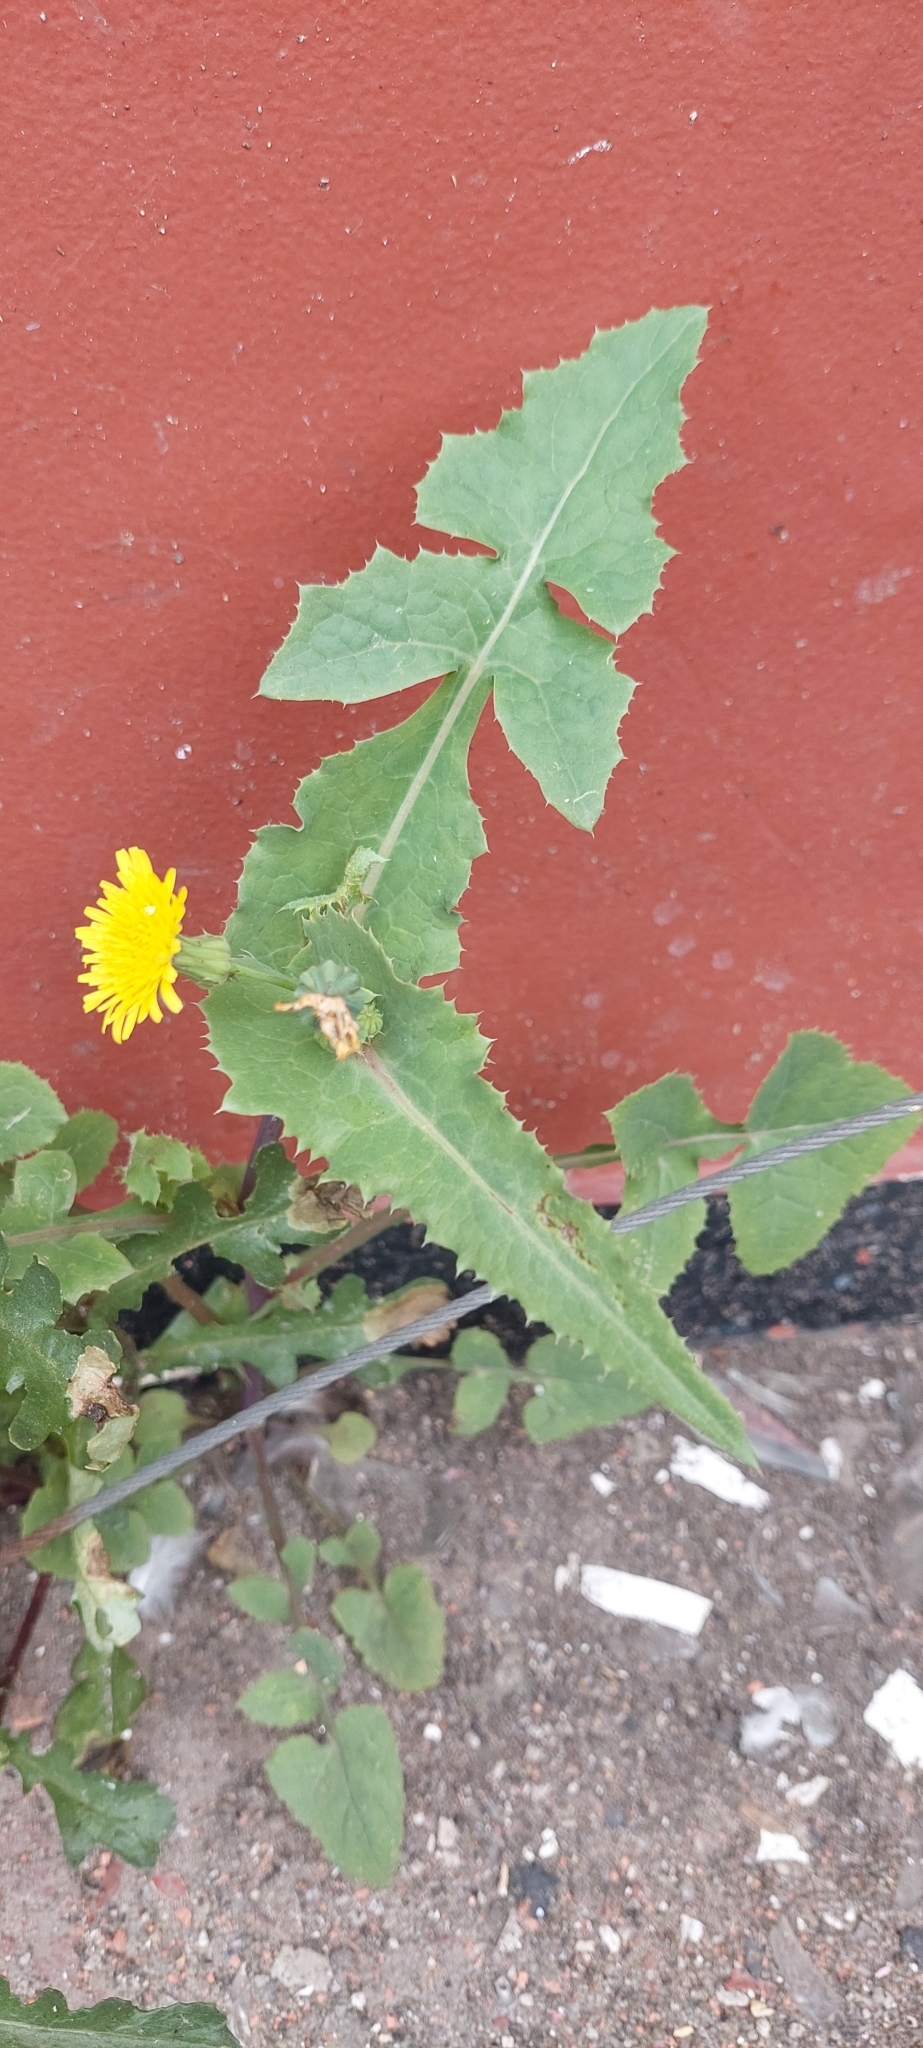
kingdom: Plantae
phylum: Tracheophyta
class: Magnoliopsida
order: Asterales
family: Asteraceae
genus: Sonchus
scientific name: Sonchus oleraceus
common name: Common sowthistle
